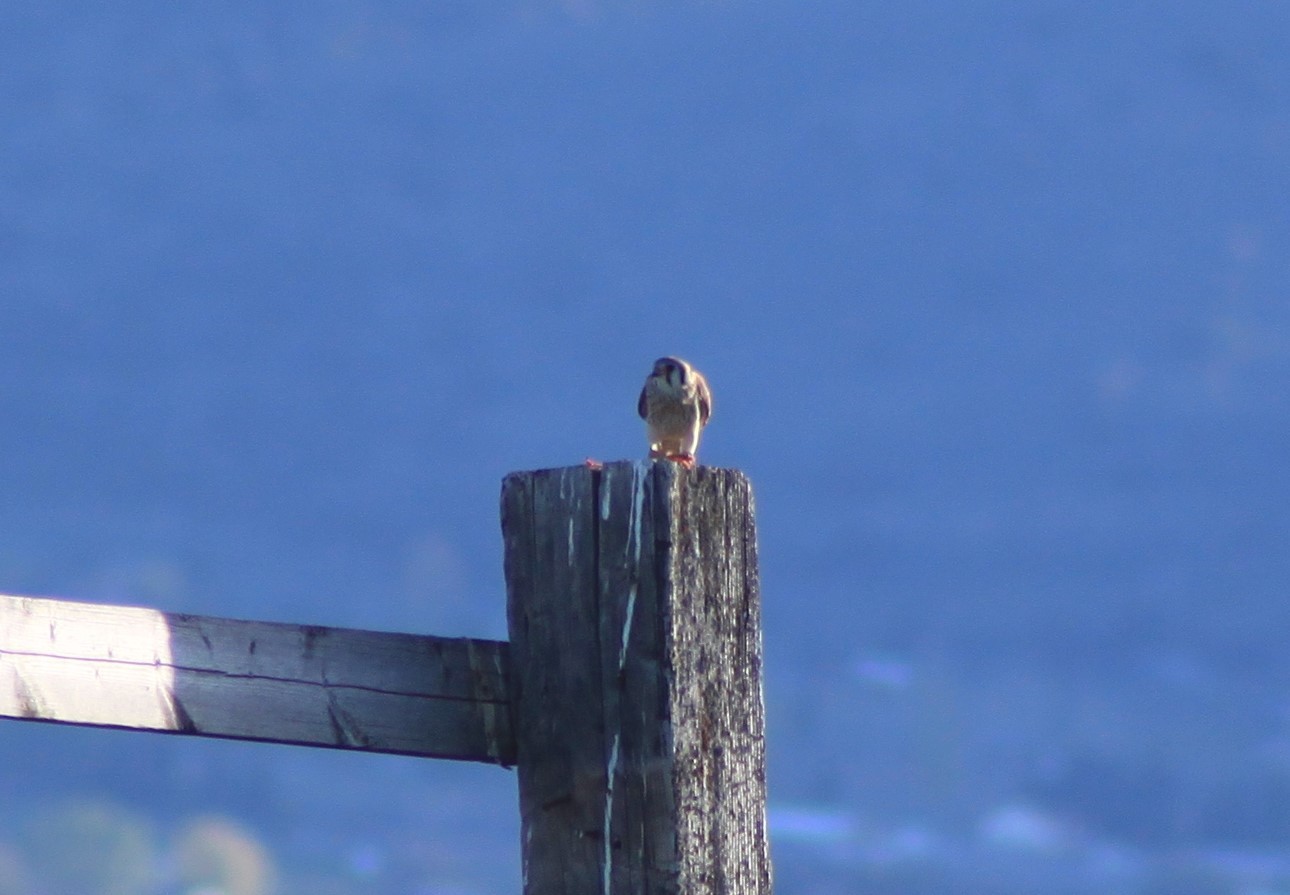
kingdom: Animalia
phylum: Chordata
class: Aves
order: Falconiformes
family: Falconidae
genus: Falco
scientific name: Falco sparverius
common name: American kestrel
